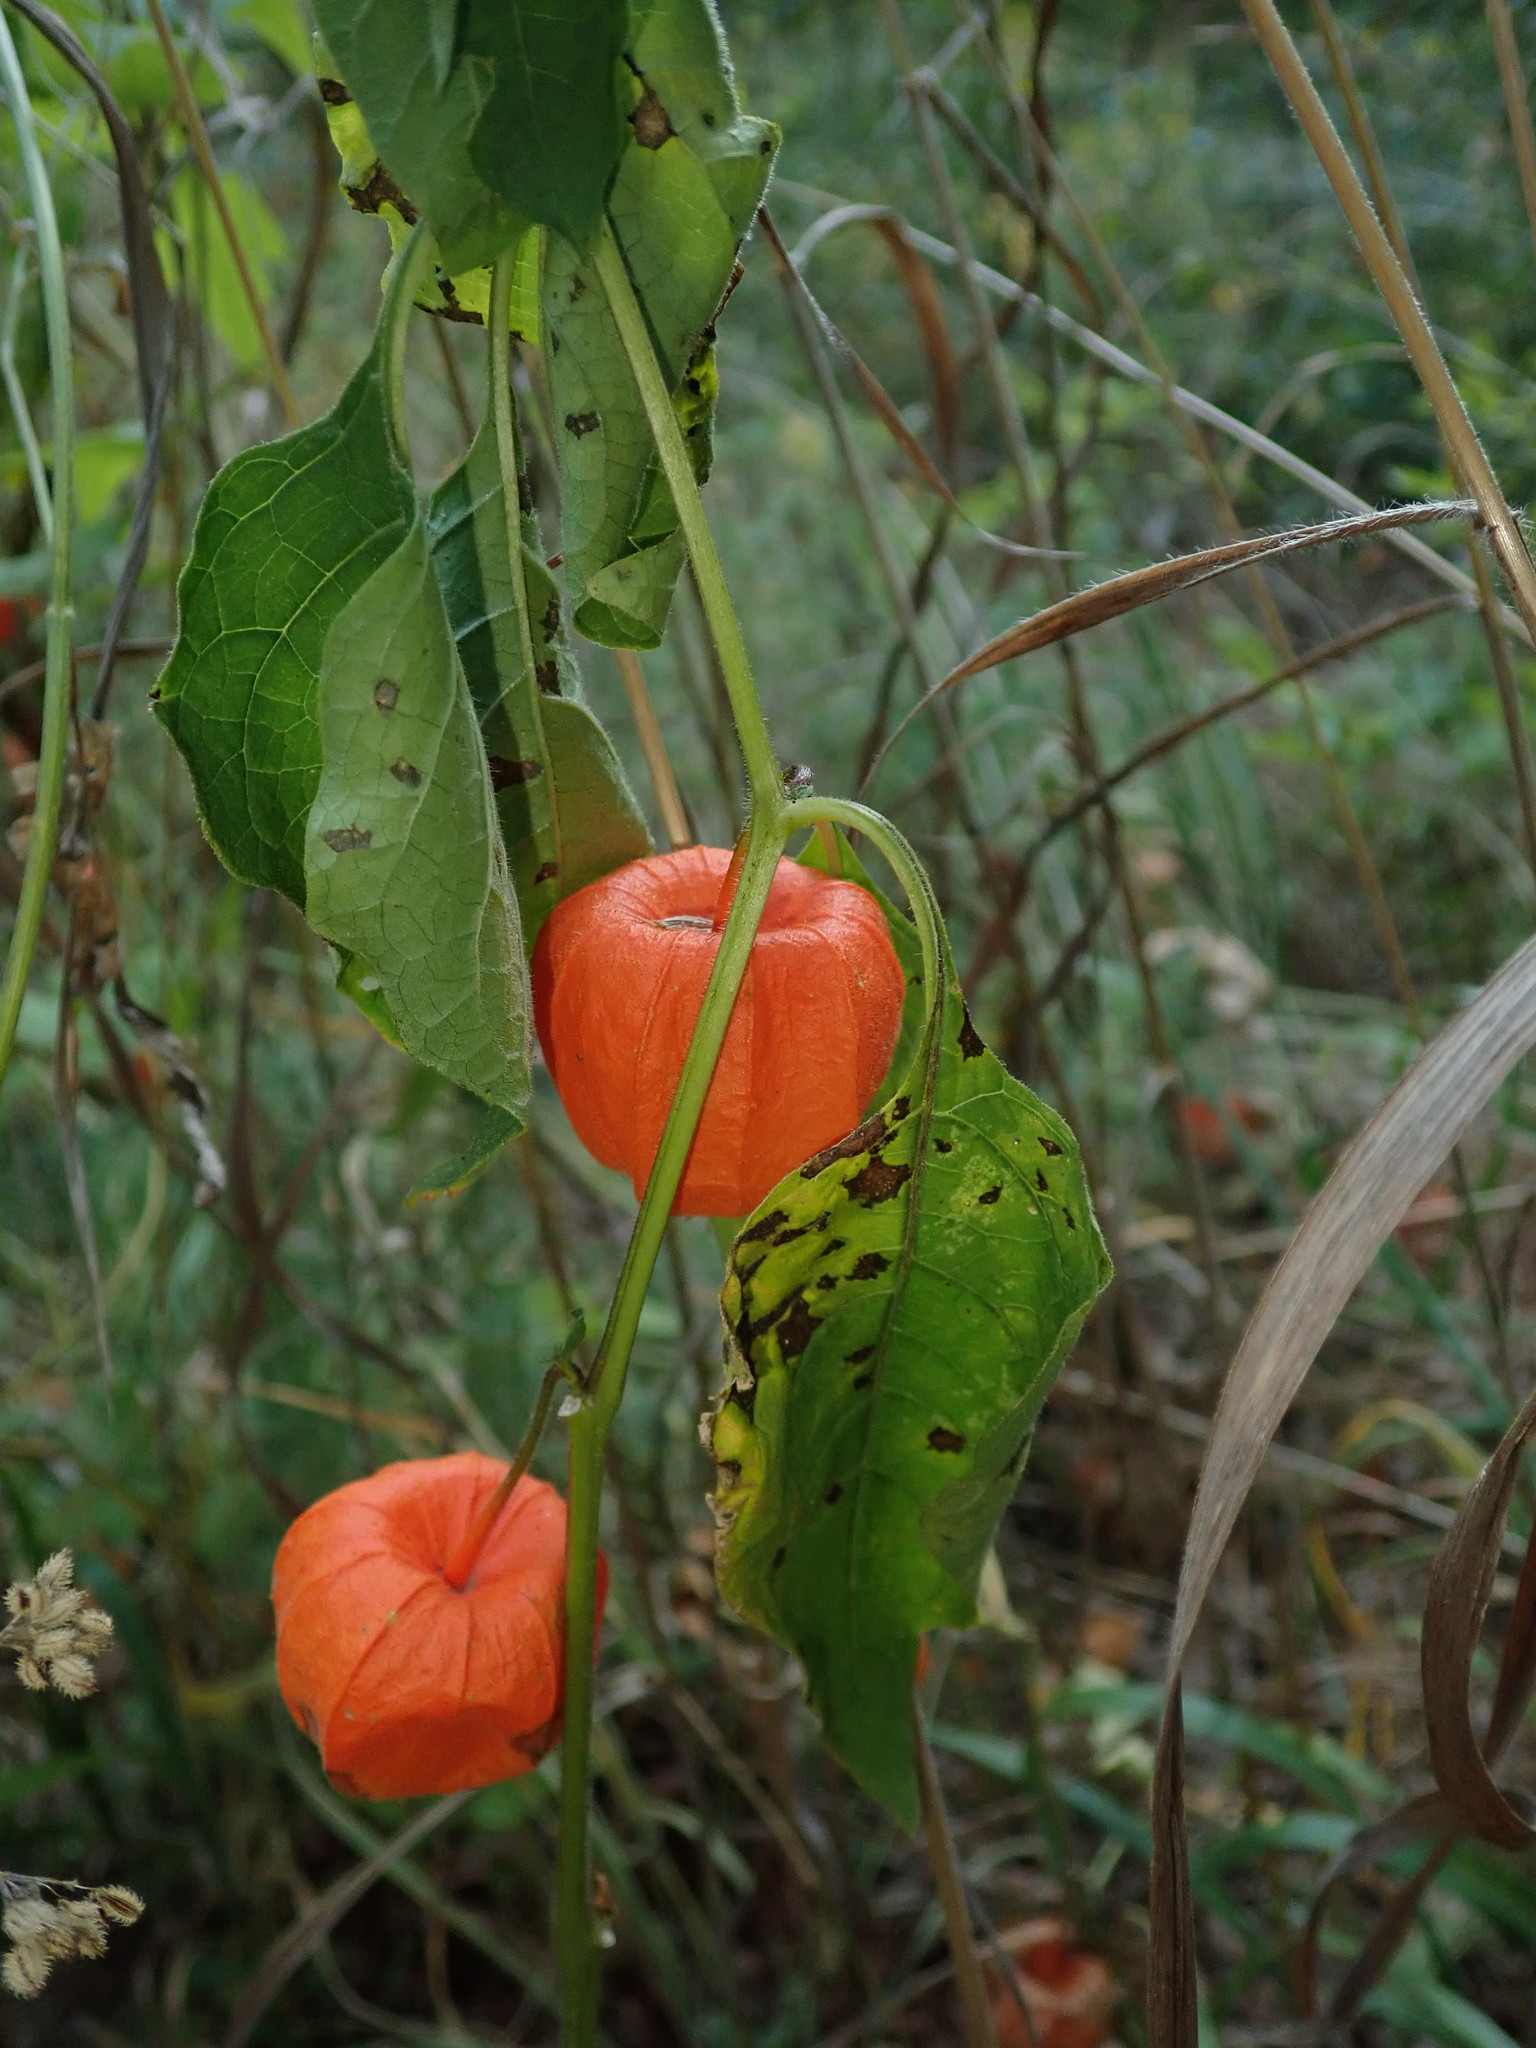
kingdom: Plantae
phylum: Tracheophyta
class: Magnoliopsida
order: Solanales
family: Solanaceae
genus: Alkekengi
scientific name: Alkekengi officinarum
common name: Japanese-lantern
